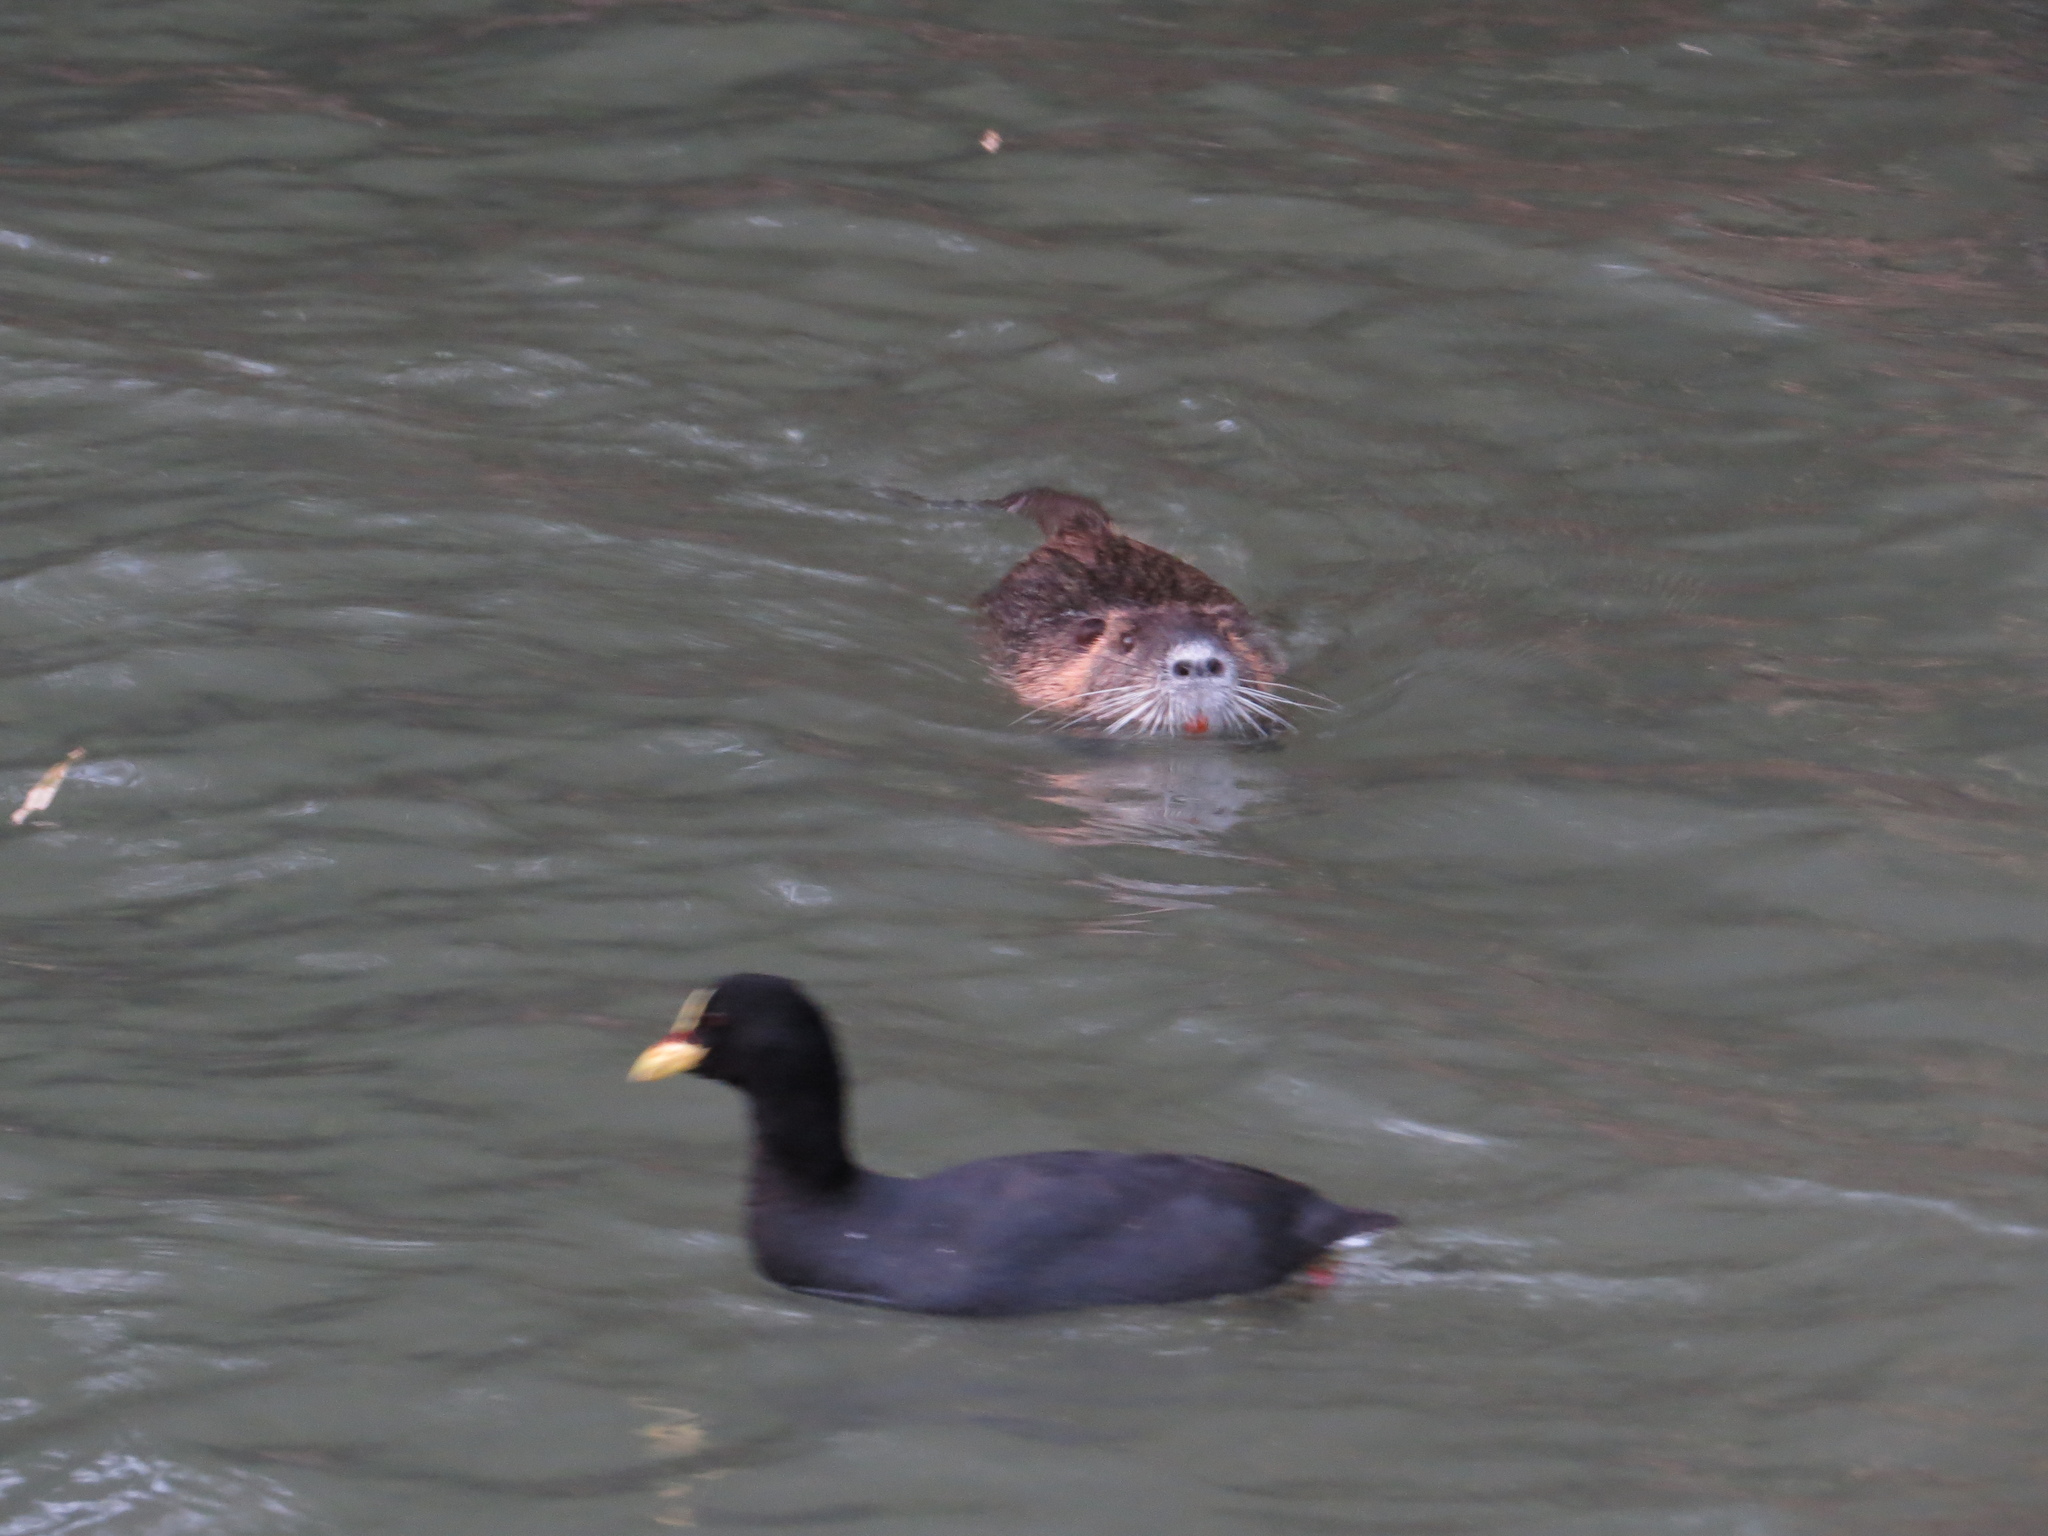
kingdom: Animalia
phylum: Chordata
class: Aves
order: Gruiformes
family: Rallidae
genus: Fulica
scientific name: Fulica armillata
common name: Red-gartered coot
